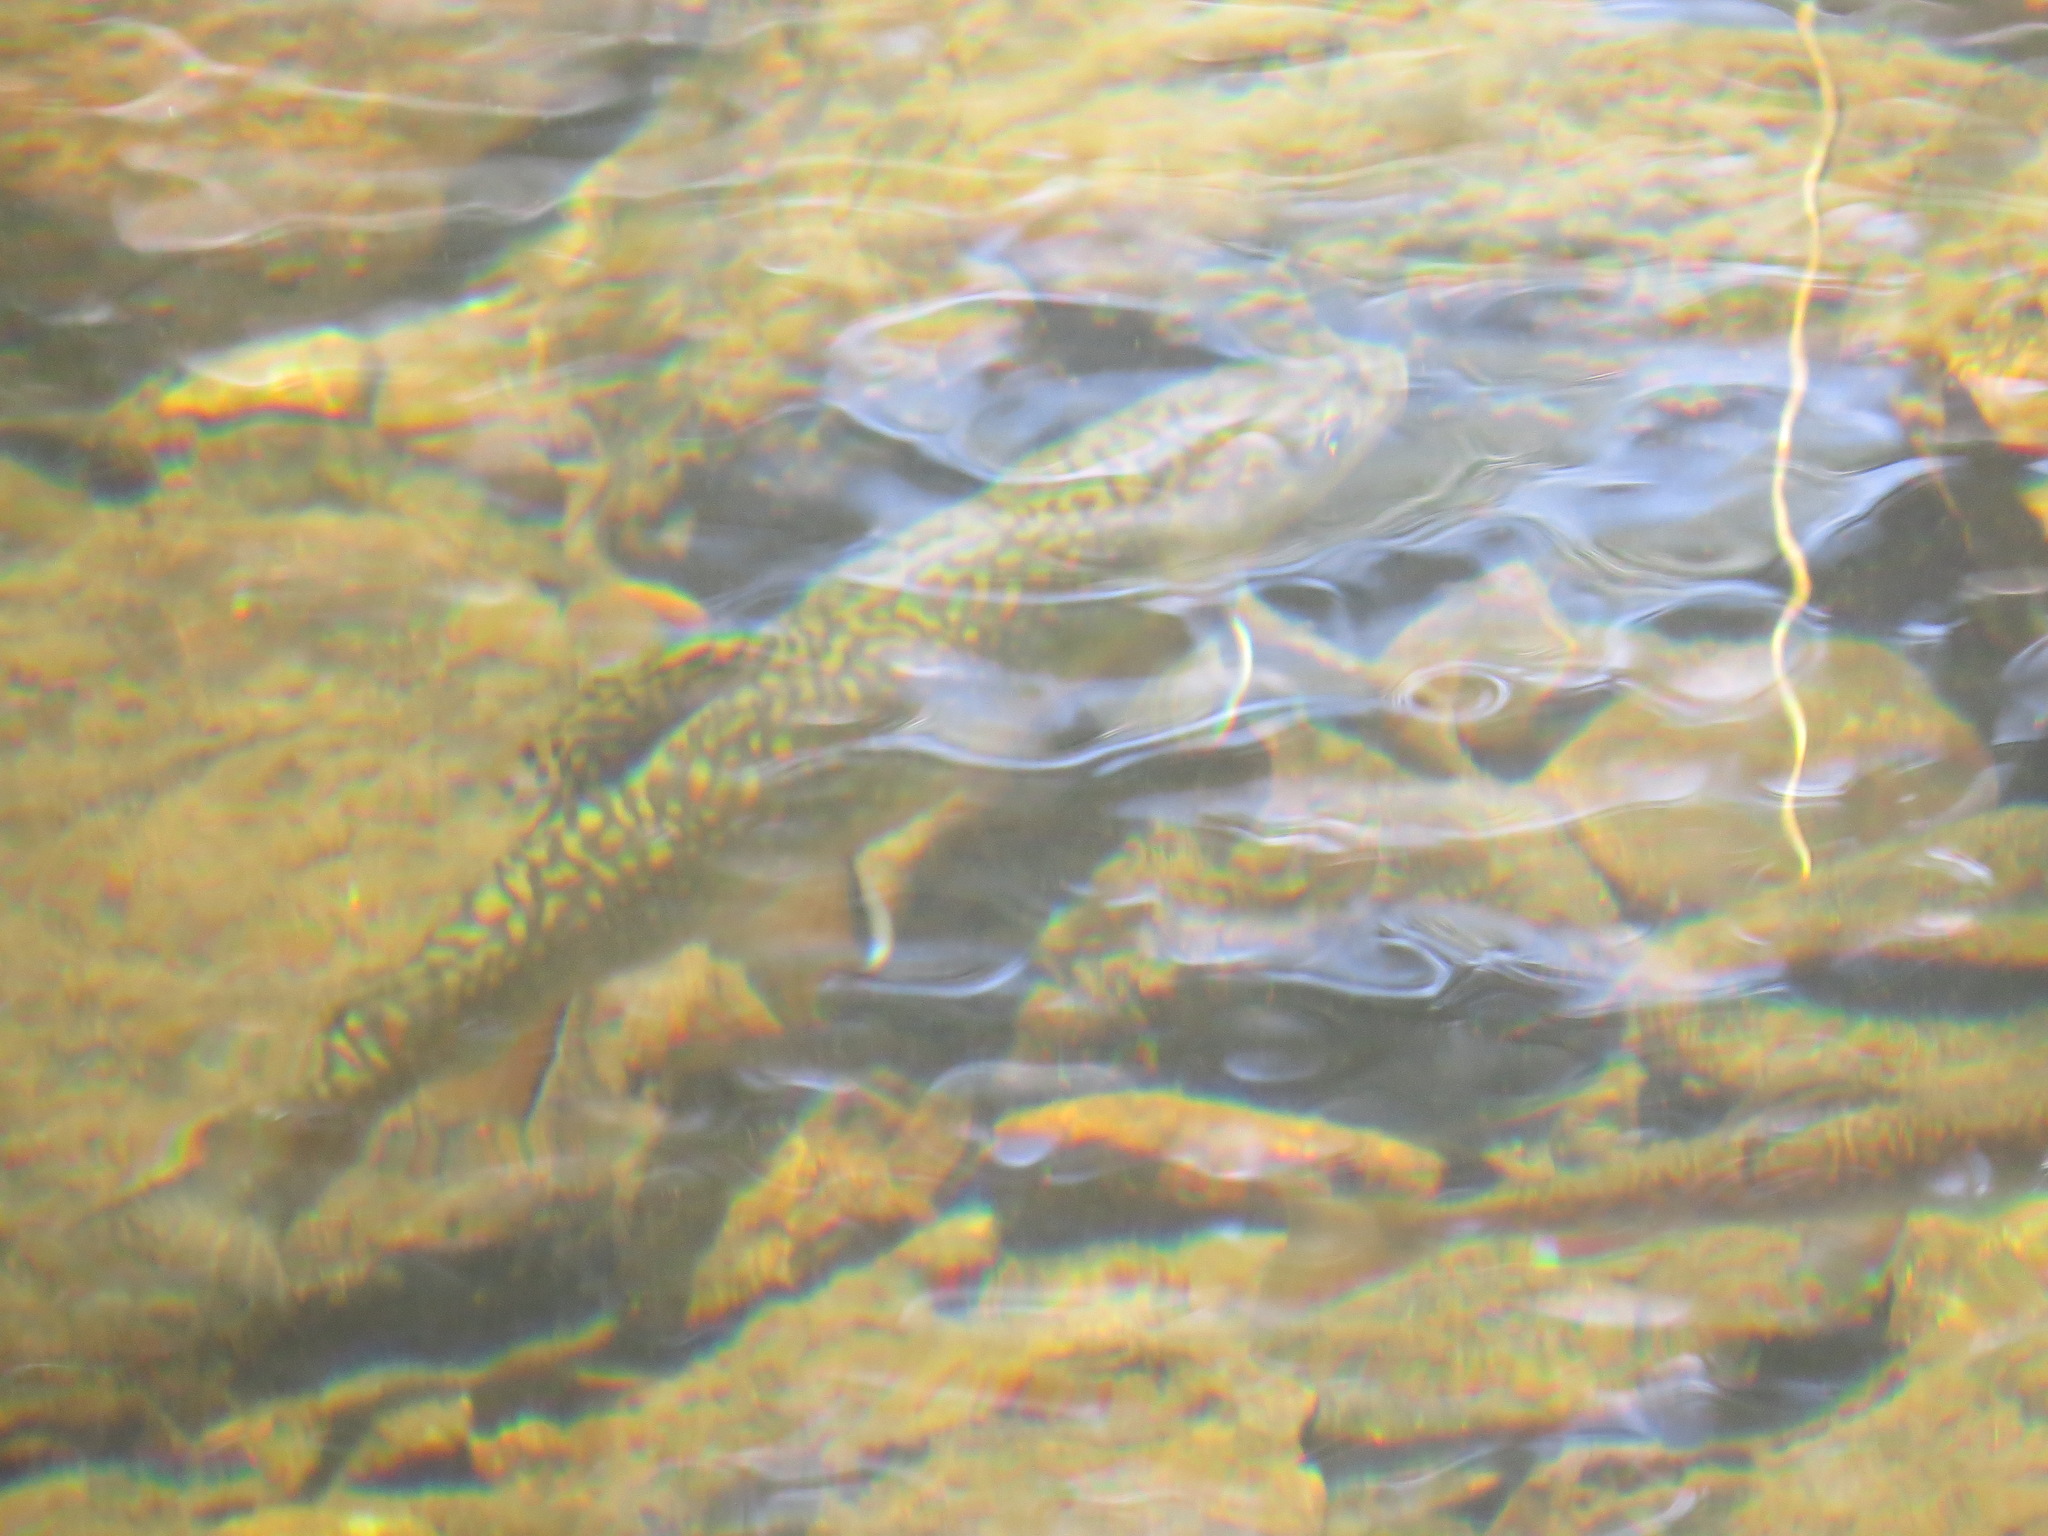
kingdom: Animalia
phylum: Chordata
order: Salmoniformes
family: Salmonidae
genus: Salvelinus
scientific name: Salvelinus fontinalis
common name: Brook trout
